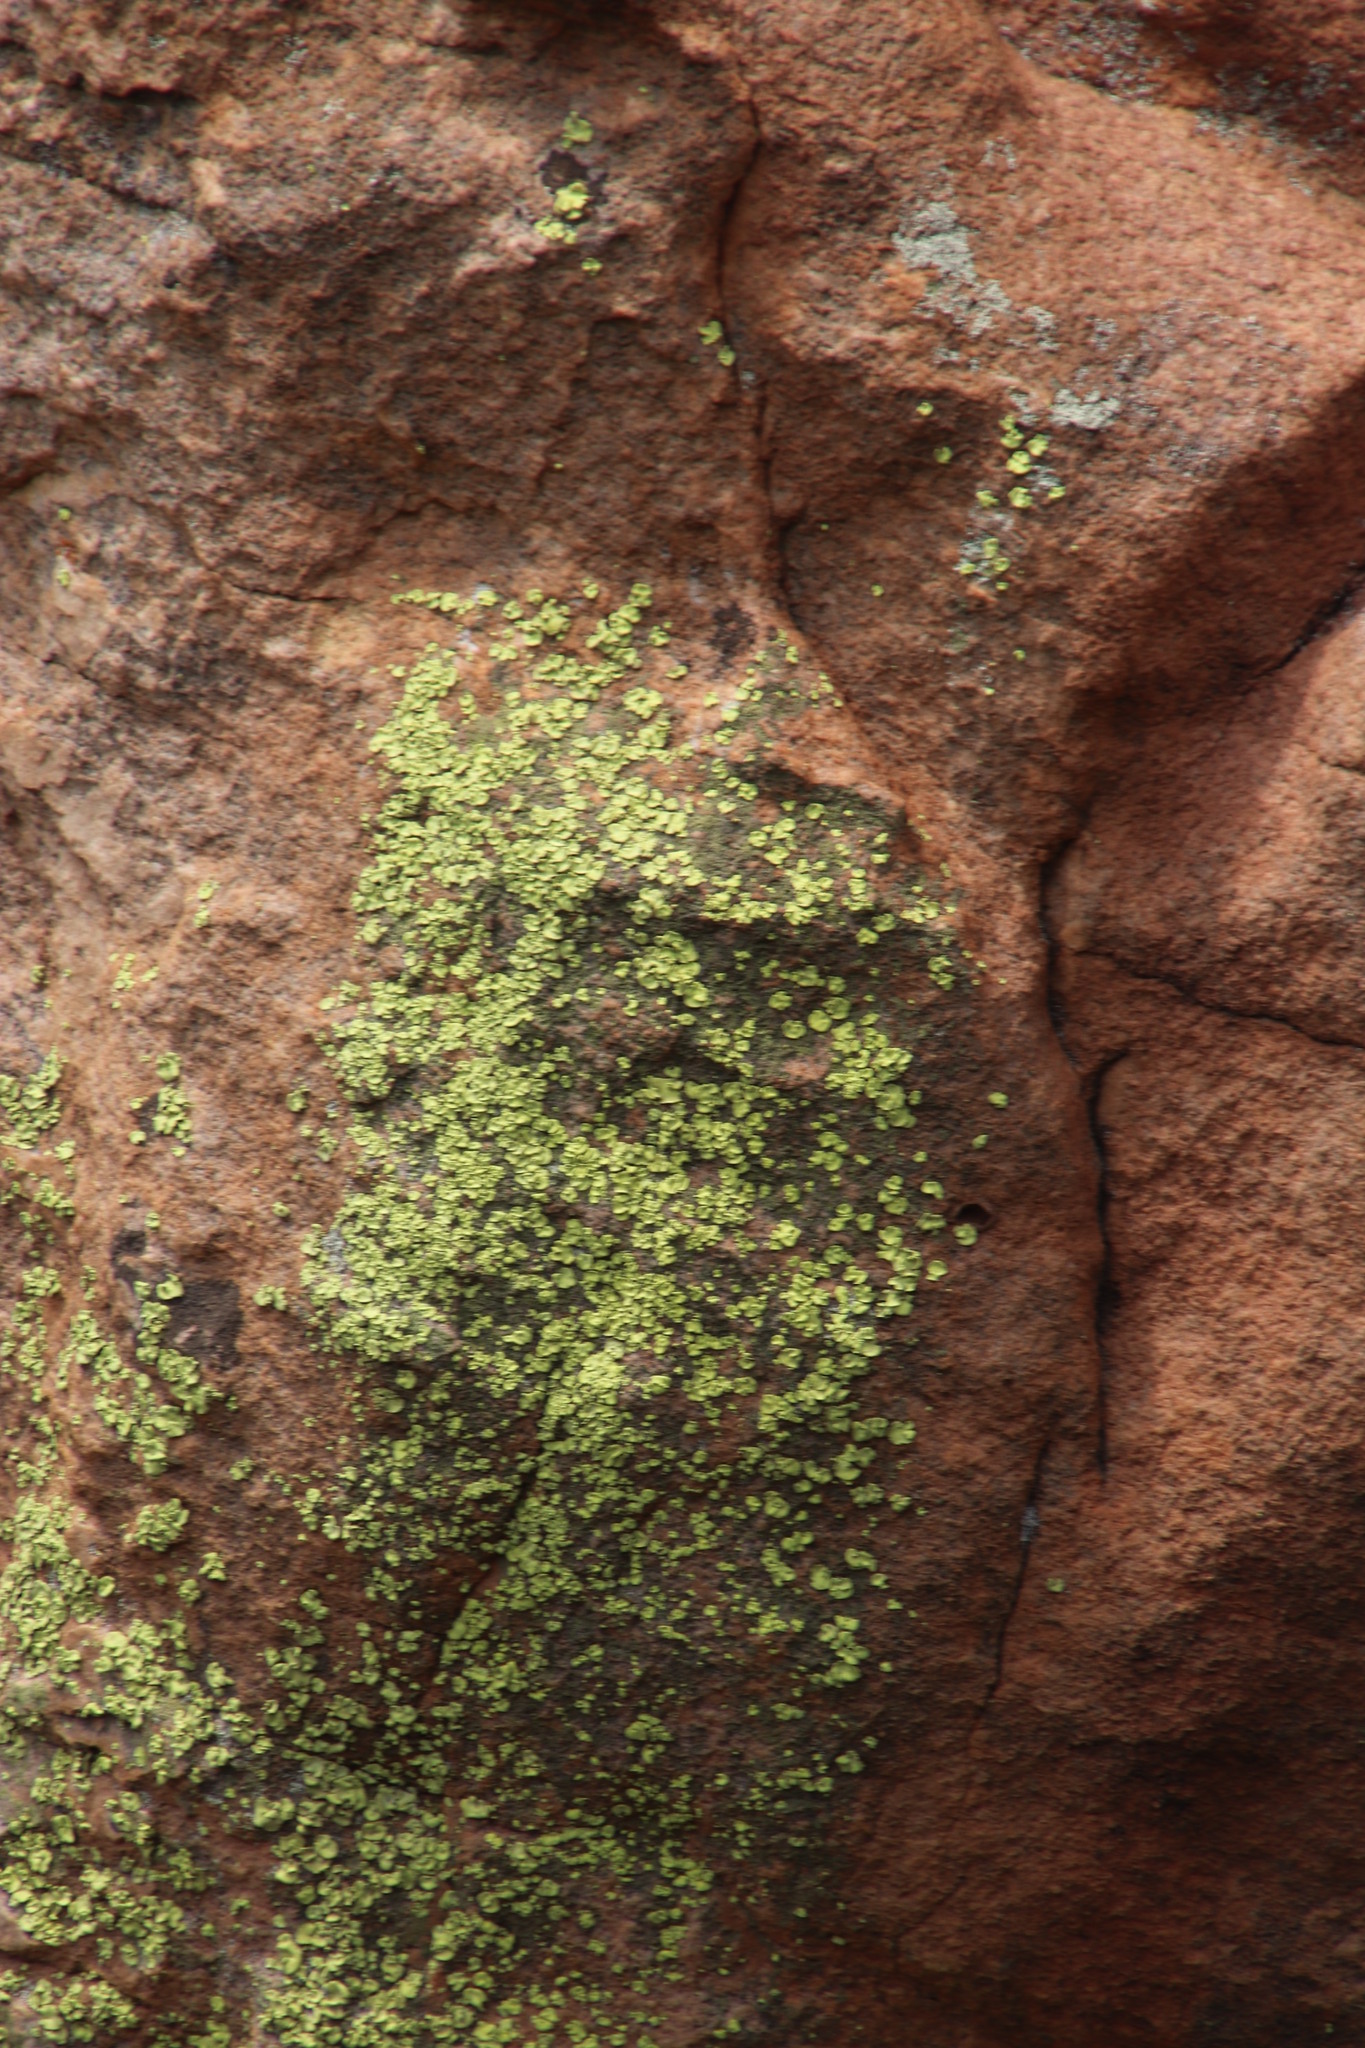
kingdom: Fungi
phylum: Ascomycota
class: Lecanoromycetes
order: Caliciales
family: Caliciaceae
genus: Dermatiscum
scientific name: Dermatiscum thunbergii
